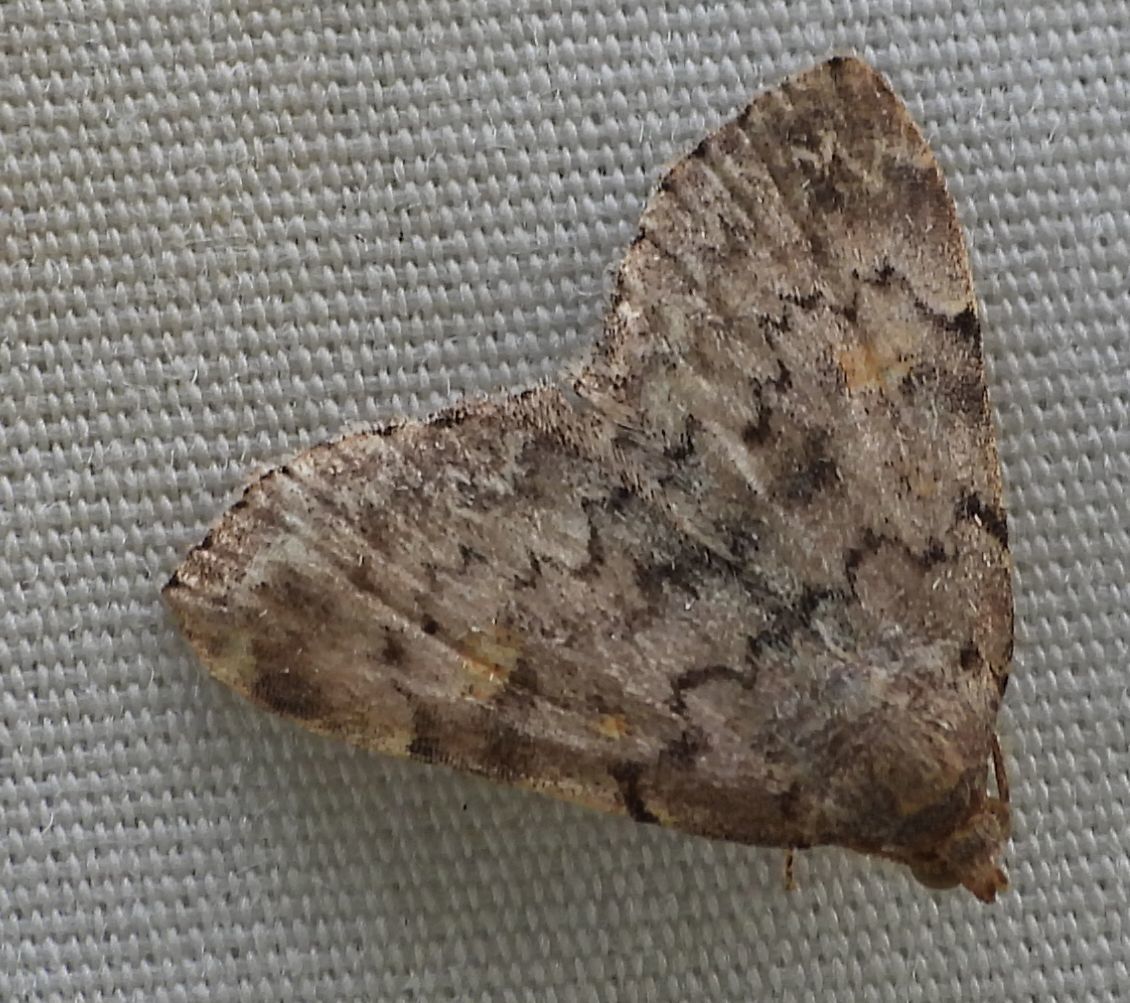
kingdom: Animalia
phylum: Arthropoda
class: Insecta
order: Lepidoptera
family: Erebidae
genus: Idia
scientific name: Idia aemula
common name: Common idia moth
